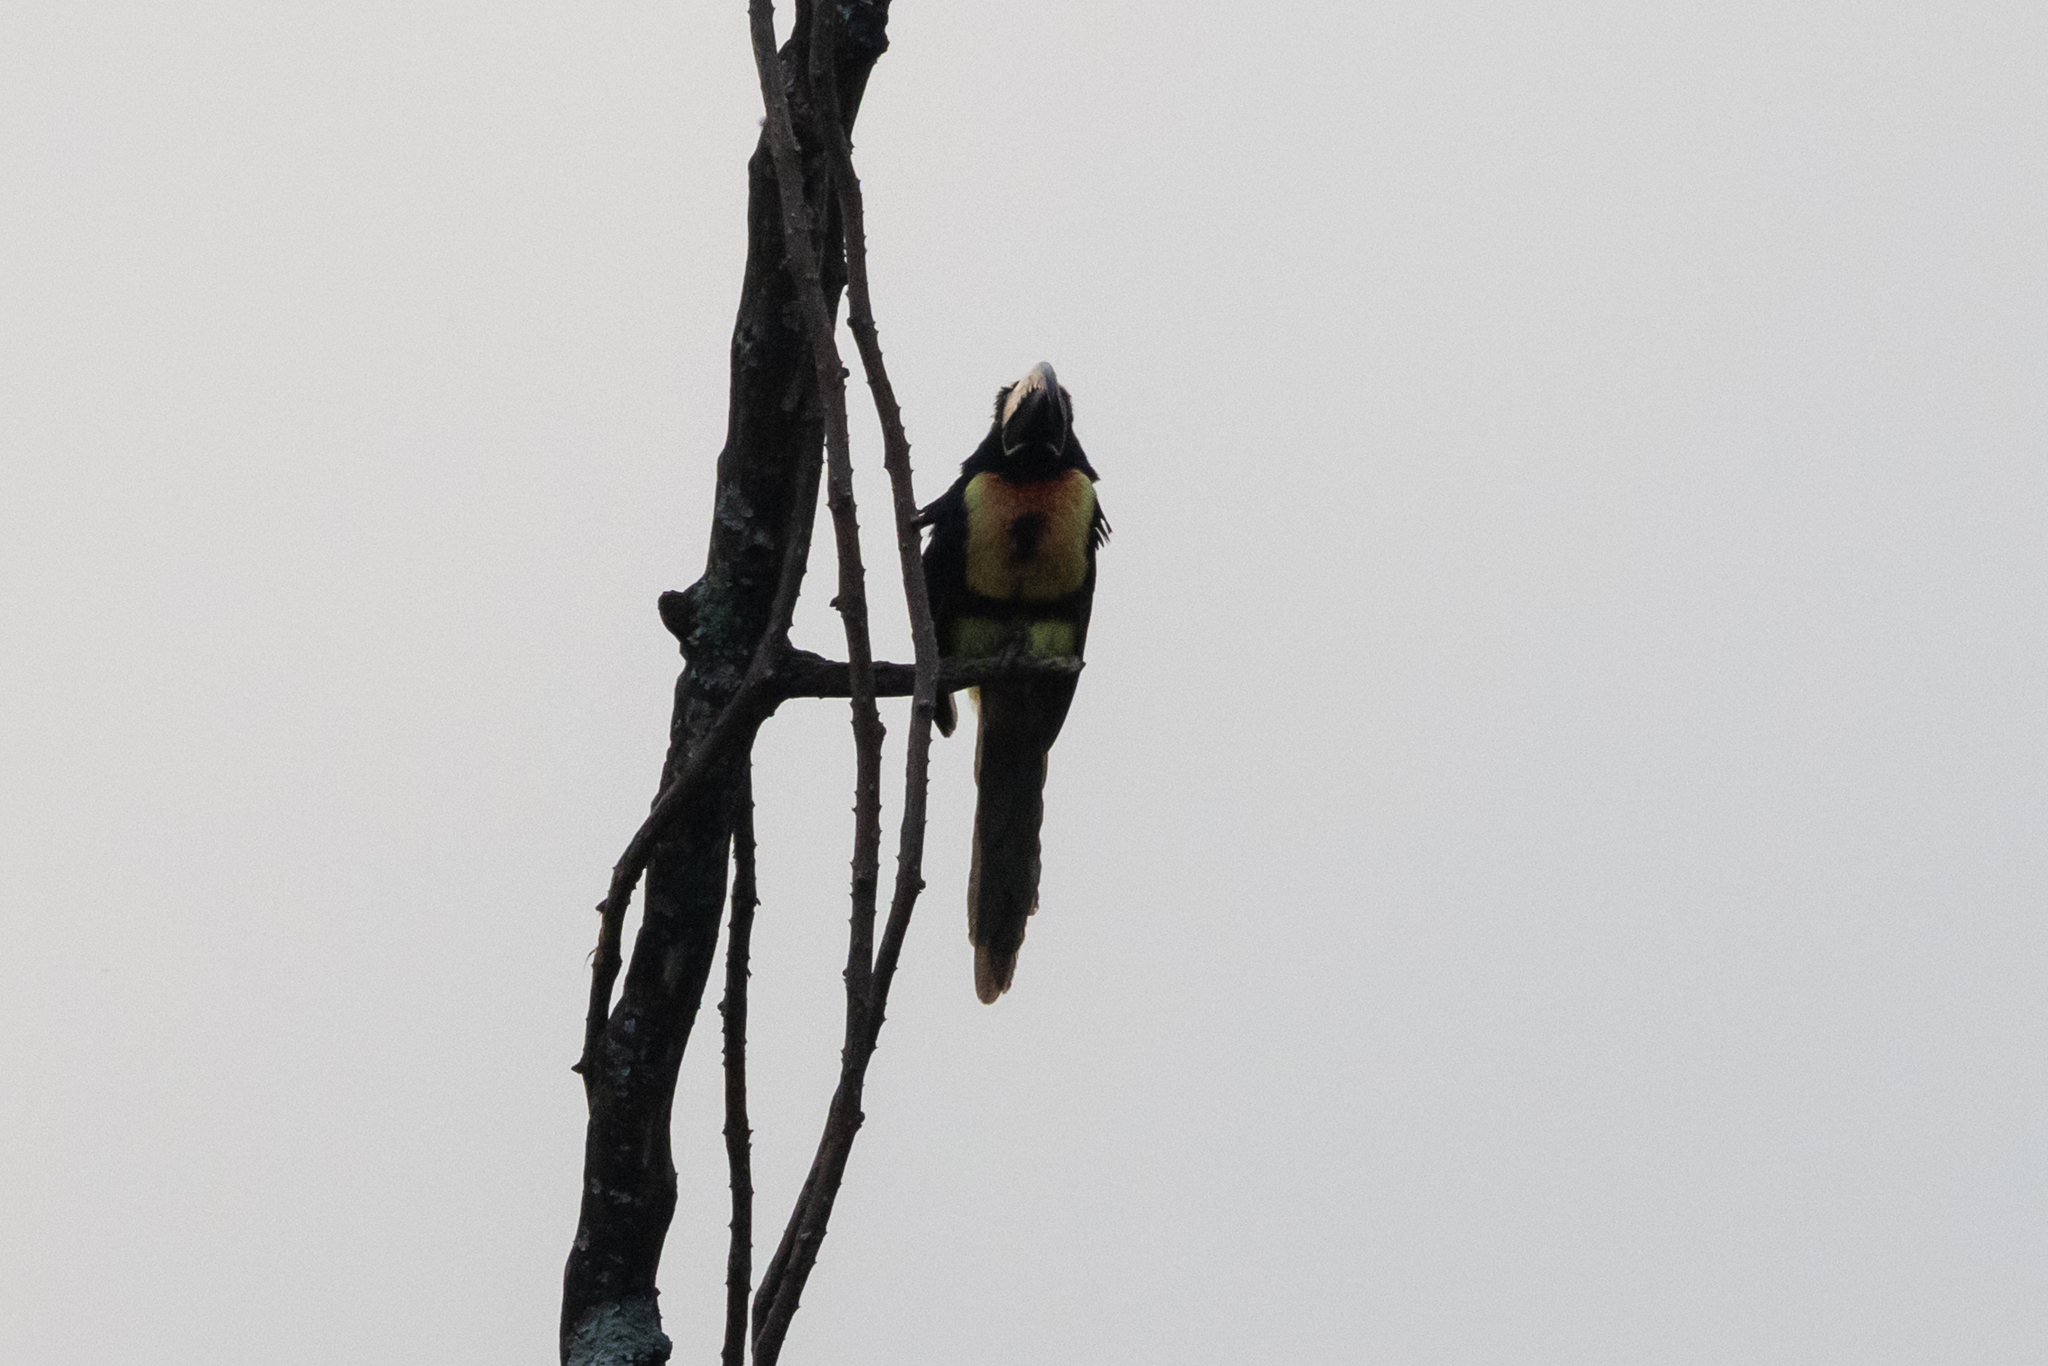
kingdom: Animalia
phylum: Chordata
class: Aves
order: Piciformes
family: Ramphastidae
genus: Pteroglossus
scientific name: Pteroglossus torquatus
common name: Collared aracari
